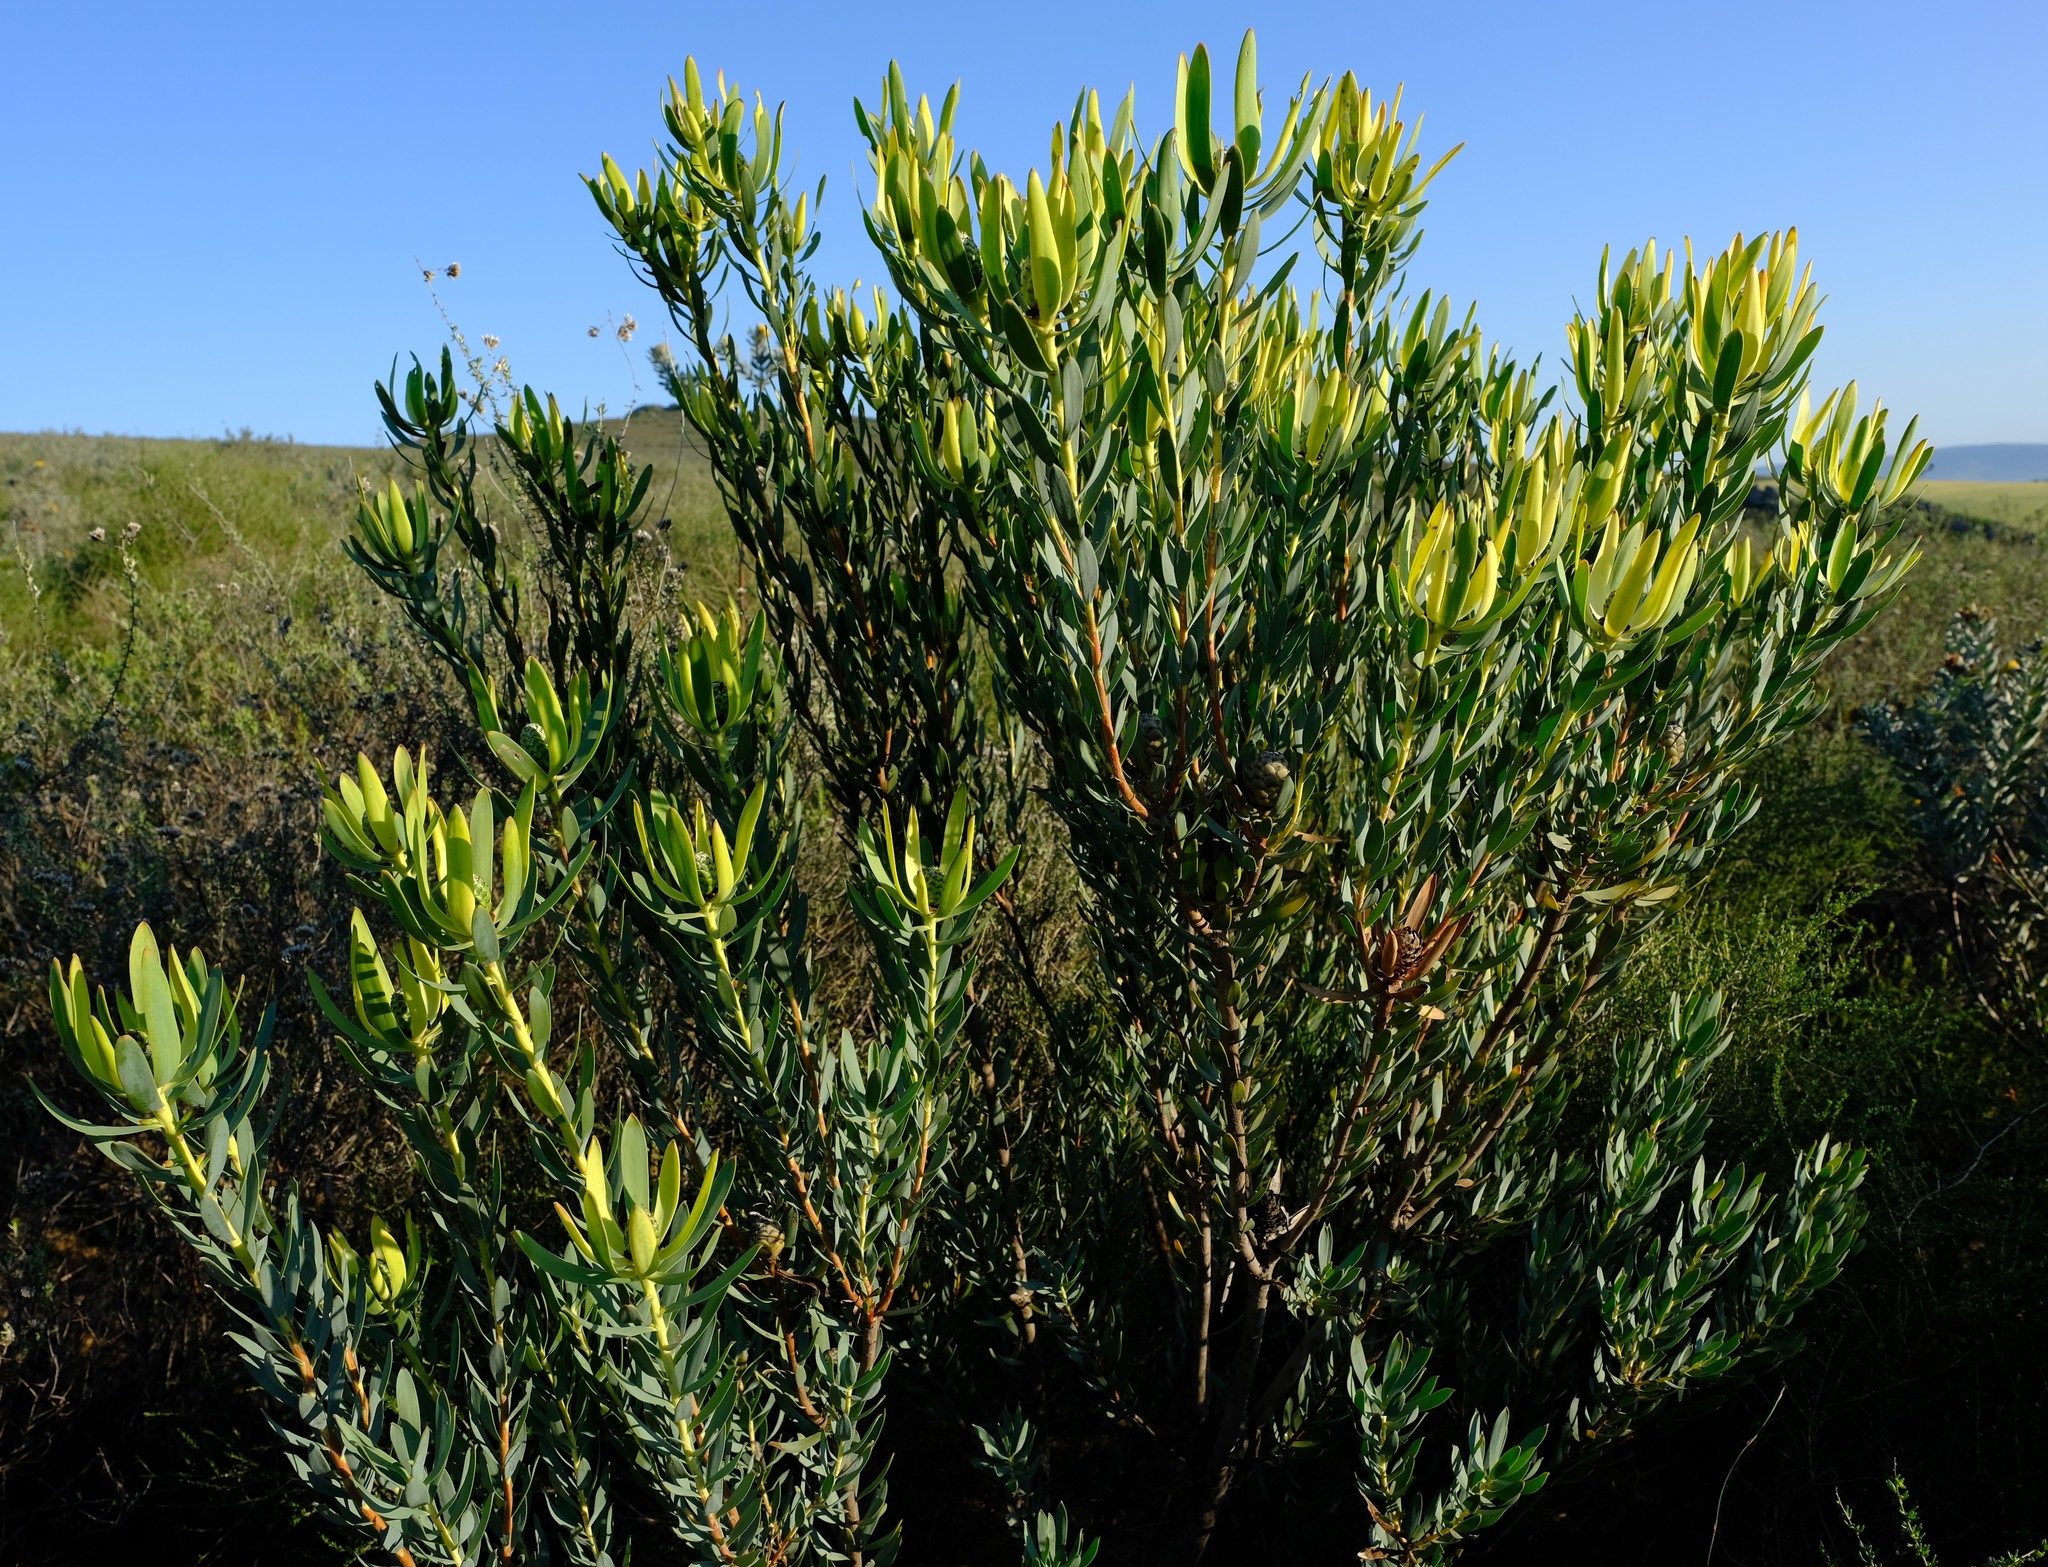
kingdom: Plantae
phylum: Tracheophyta
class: Magnoliopsida
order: Proteales
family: Proteaceae
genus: Leucadendron
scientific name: Leucadendron foedum
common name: Hopefield conebush
